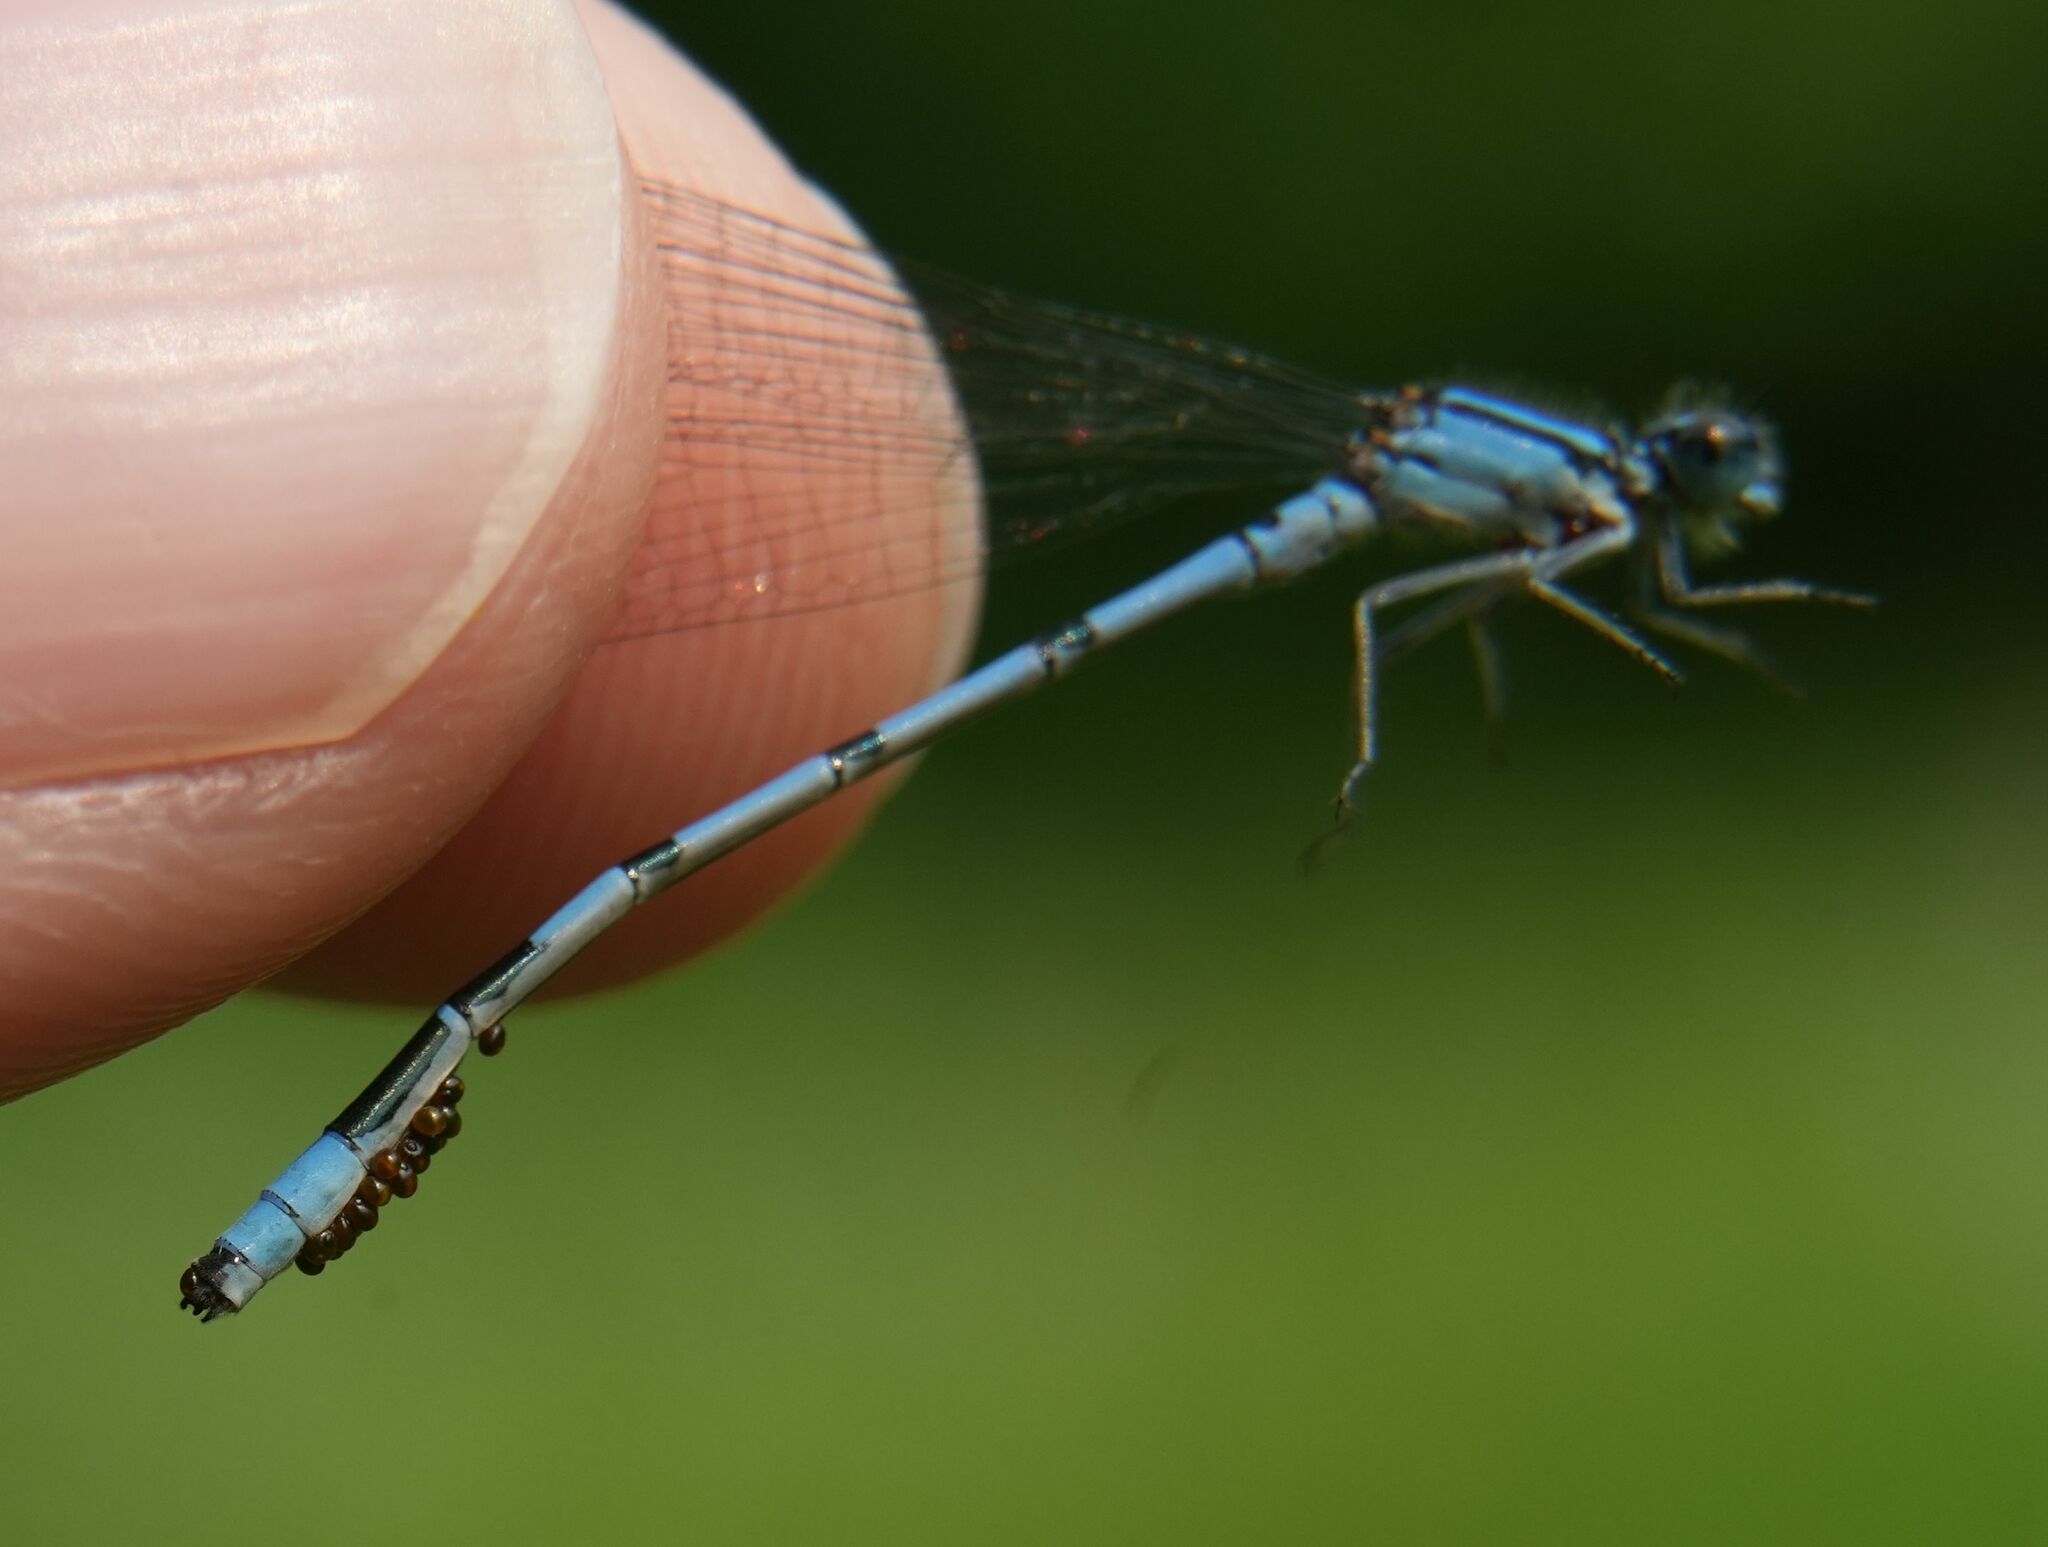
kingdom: Animalia
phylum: Arthropoda
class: Insecta
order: Odonata
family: Coenagrionidae
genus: Enallagma
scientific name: Enallagma ebrium
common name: Marsh bluet
